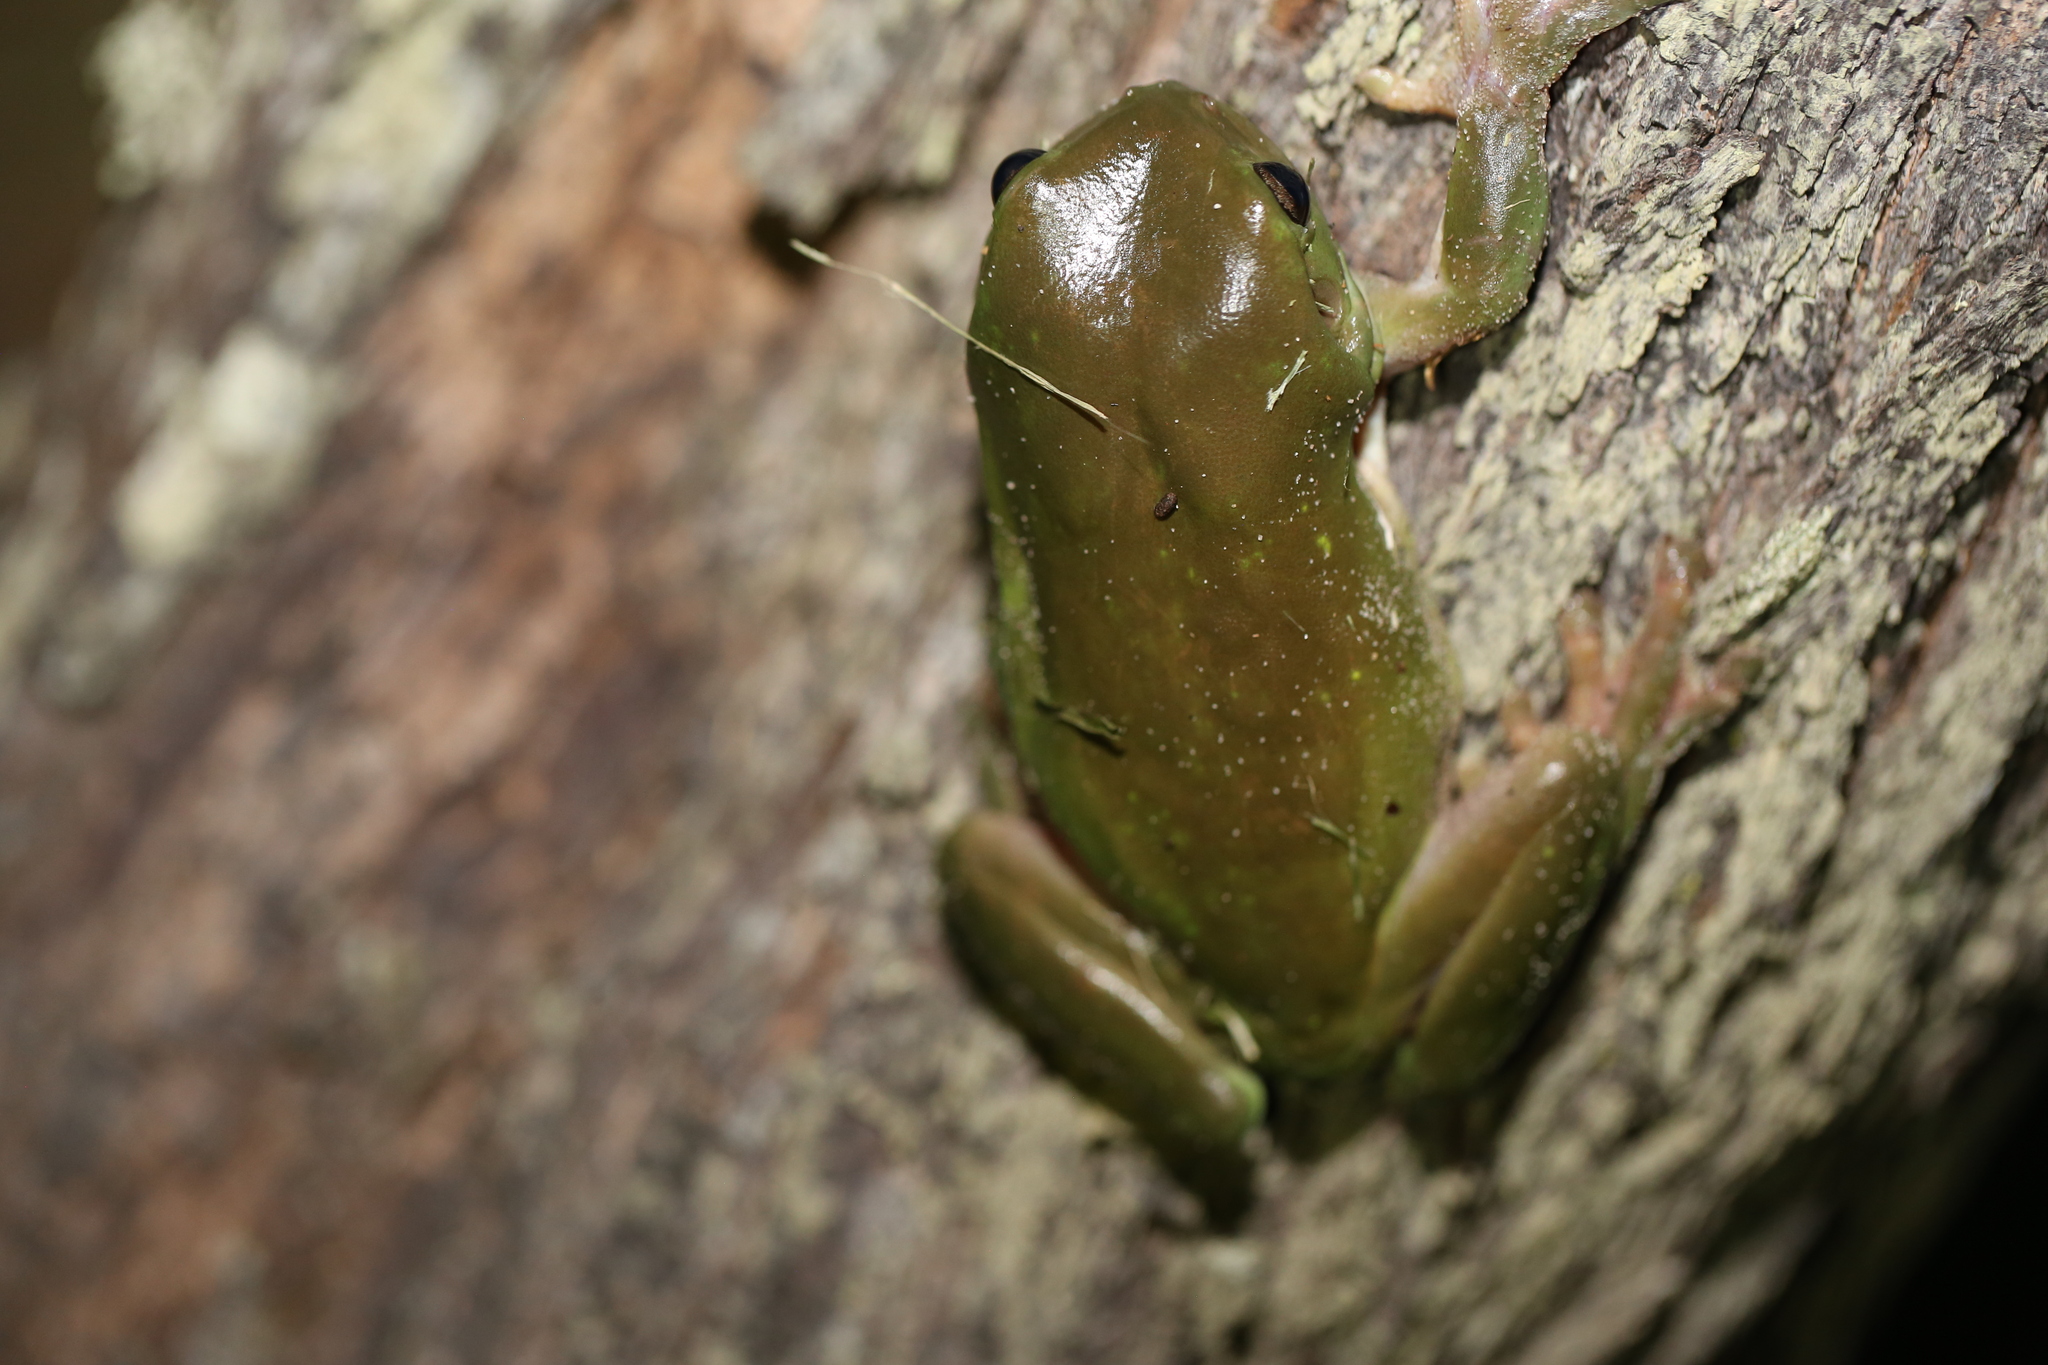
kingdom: Animalia
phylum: Chordata
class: Amphibia
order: Anura
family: Pelodryadidae
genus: Ranoidea
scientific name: Ranoidea caerulea
